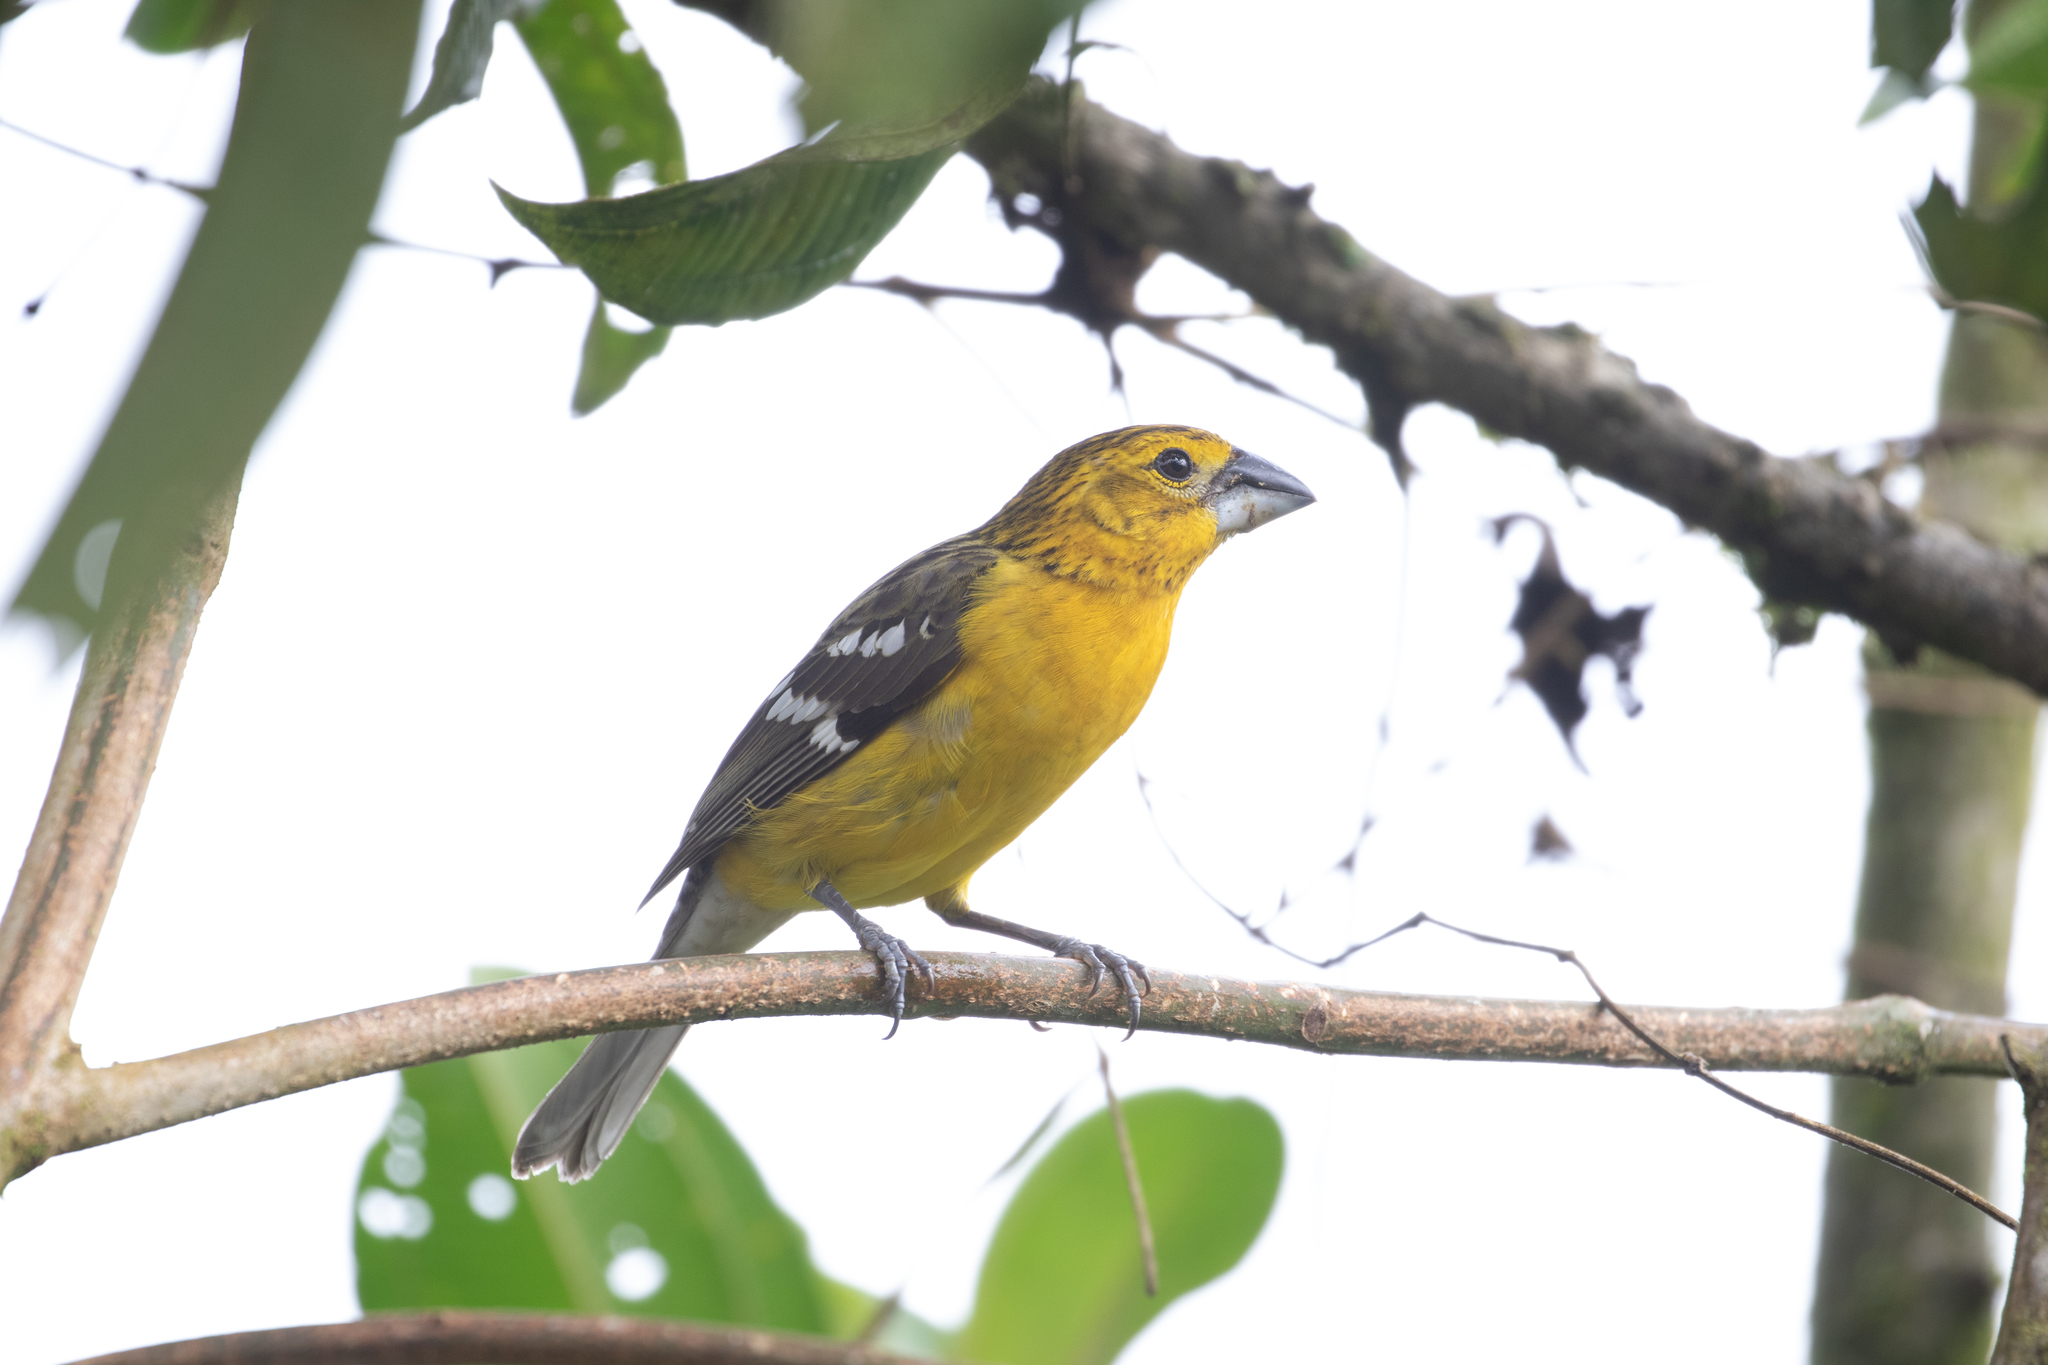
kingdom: Animalia
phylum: Chordata
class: Aves
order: Passeriformes
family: Cardinalidae
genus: Pheucticus
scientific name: Pheucticus chrysogaster
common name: Golden grosbeak
